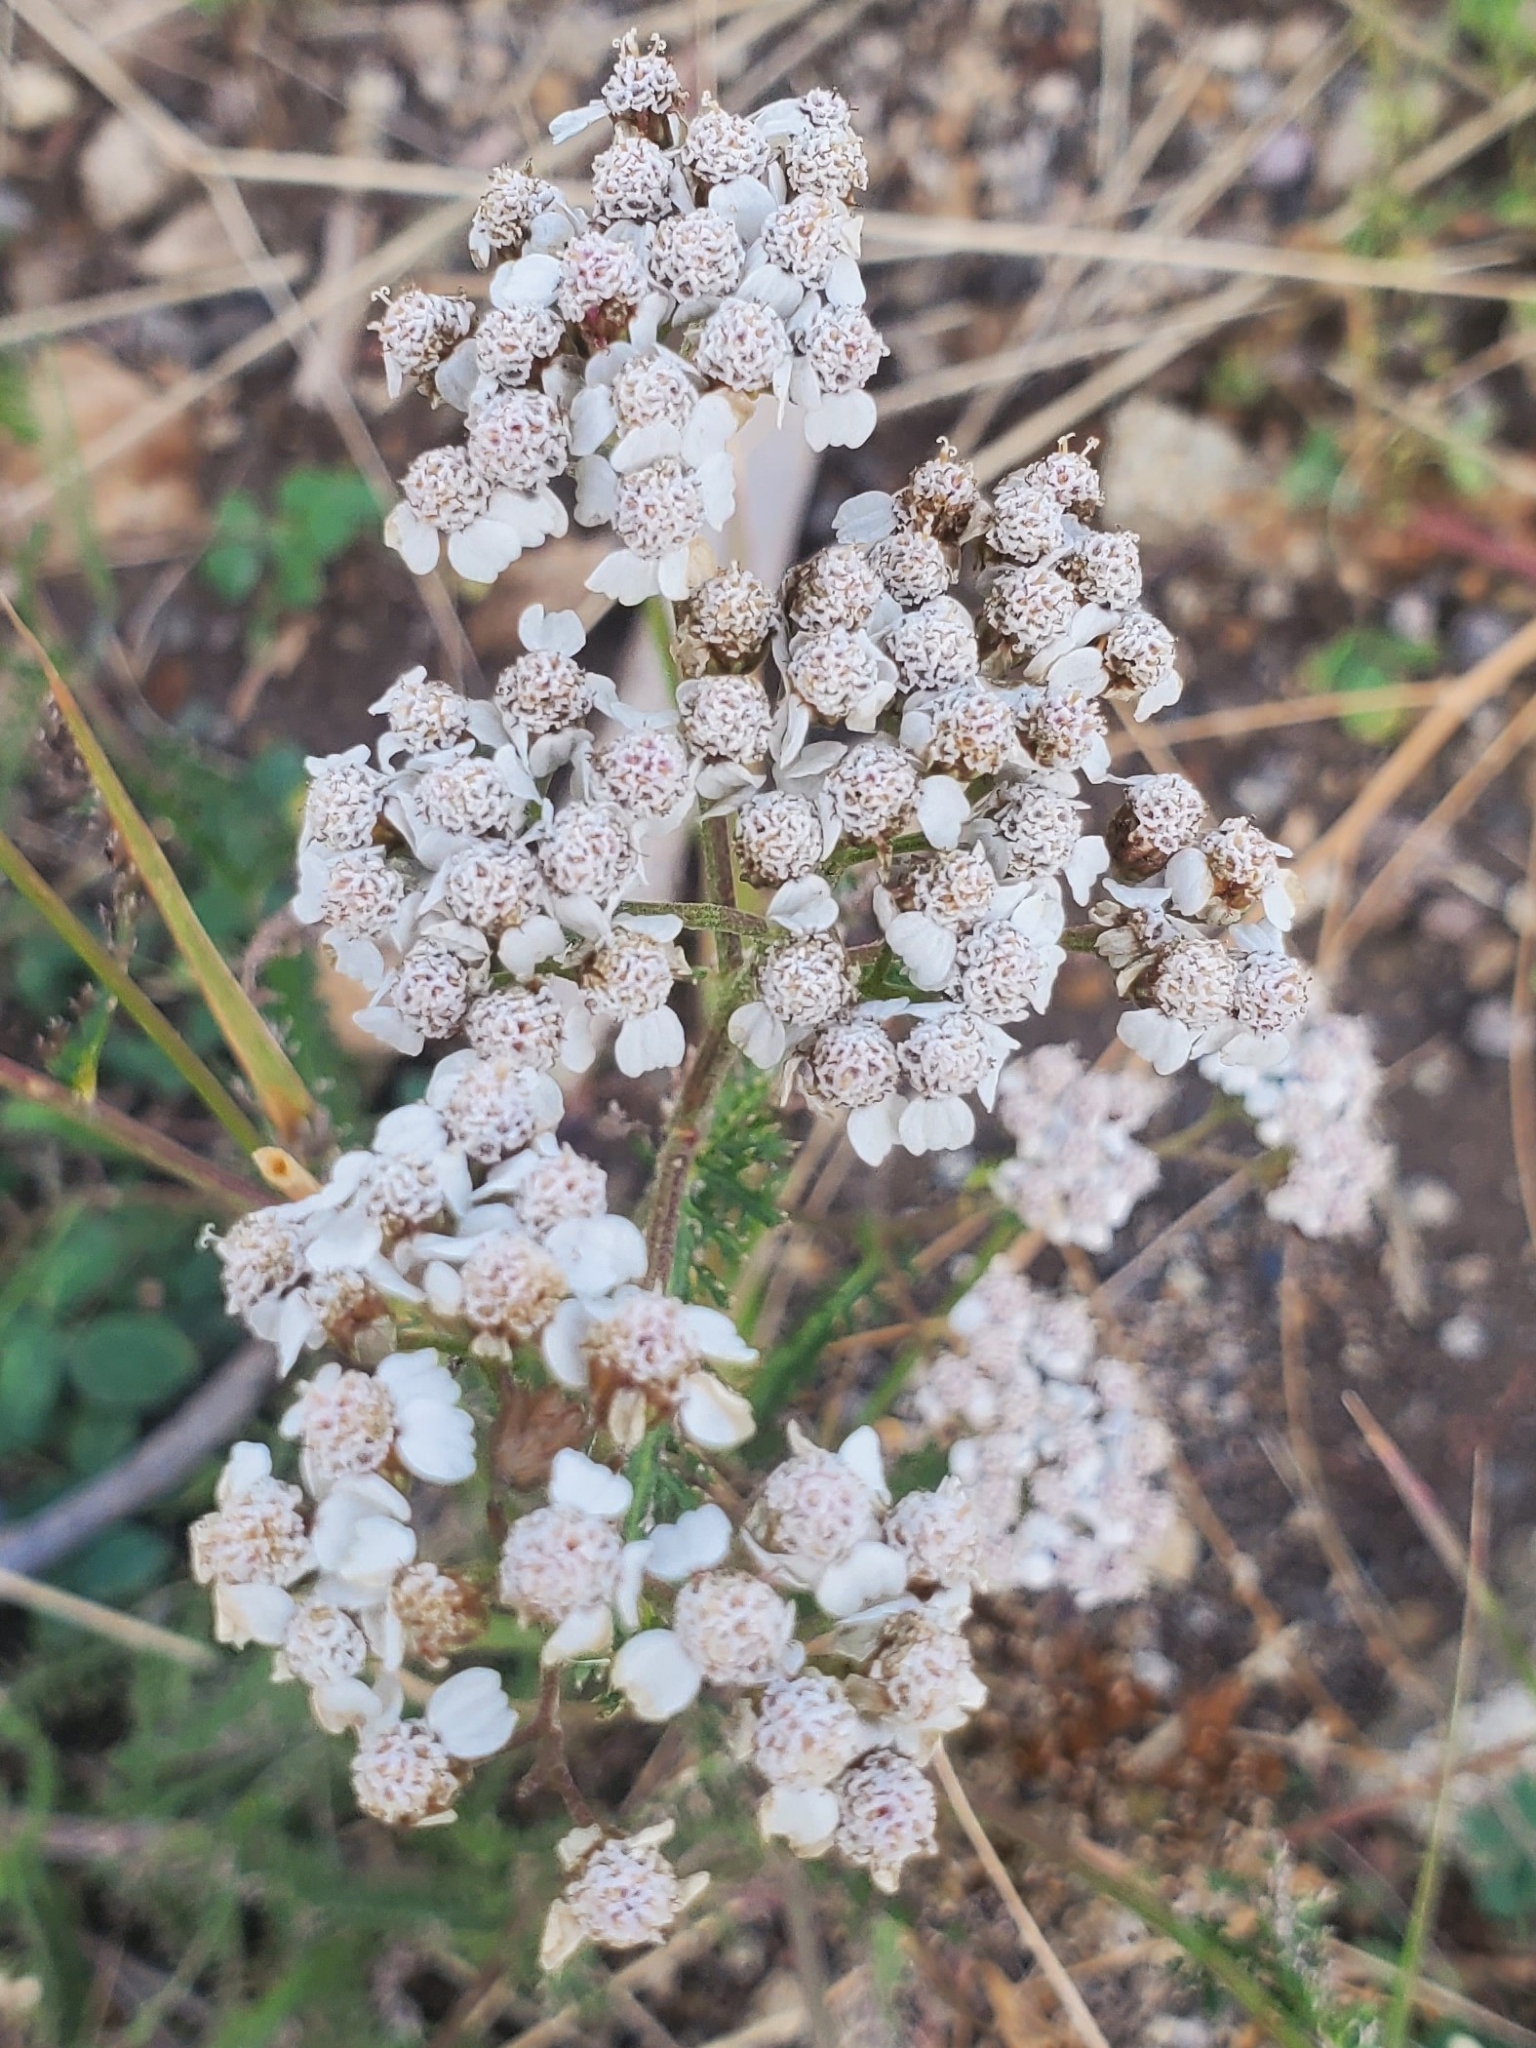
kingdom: Plantae
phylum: Tracheophyta
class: Magnoliopsida
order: Asterales
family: Asteraceae
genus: Achillea
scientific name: Achillea millefolium
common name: Yarrow
